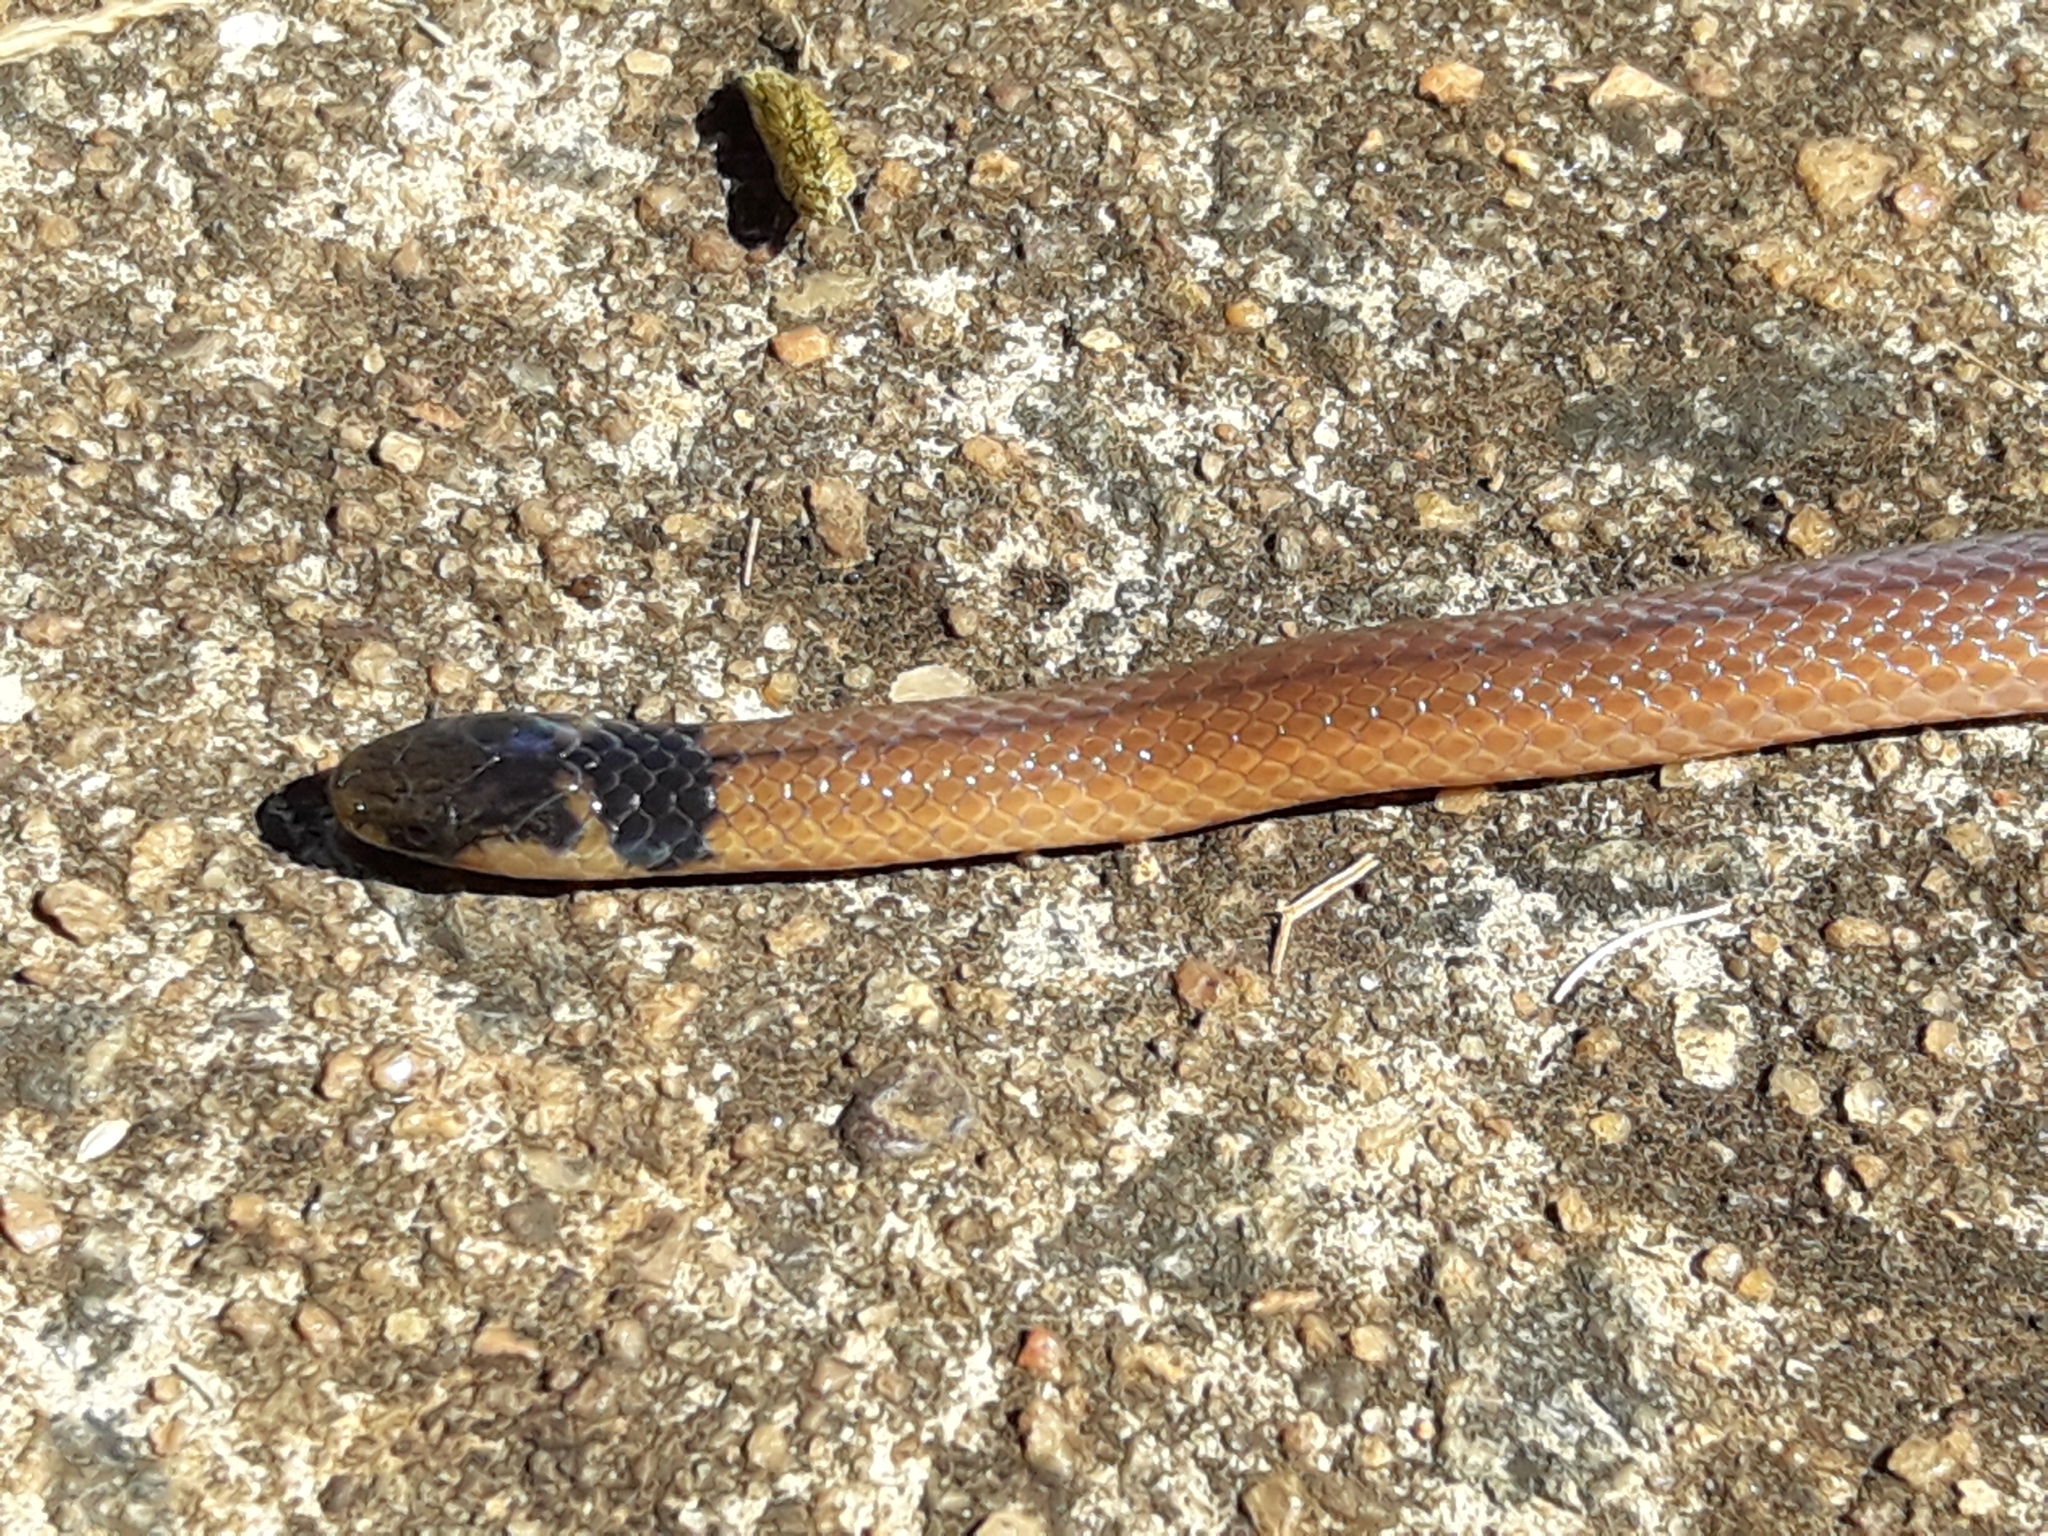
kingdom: Animalia
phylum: Chordata
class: Squamata
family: Atractaspididae
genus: Aparallactus
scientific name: Aparallactus capensis
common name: Cape centipede eater
